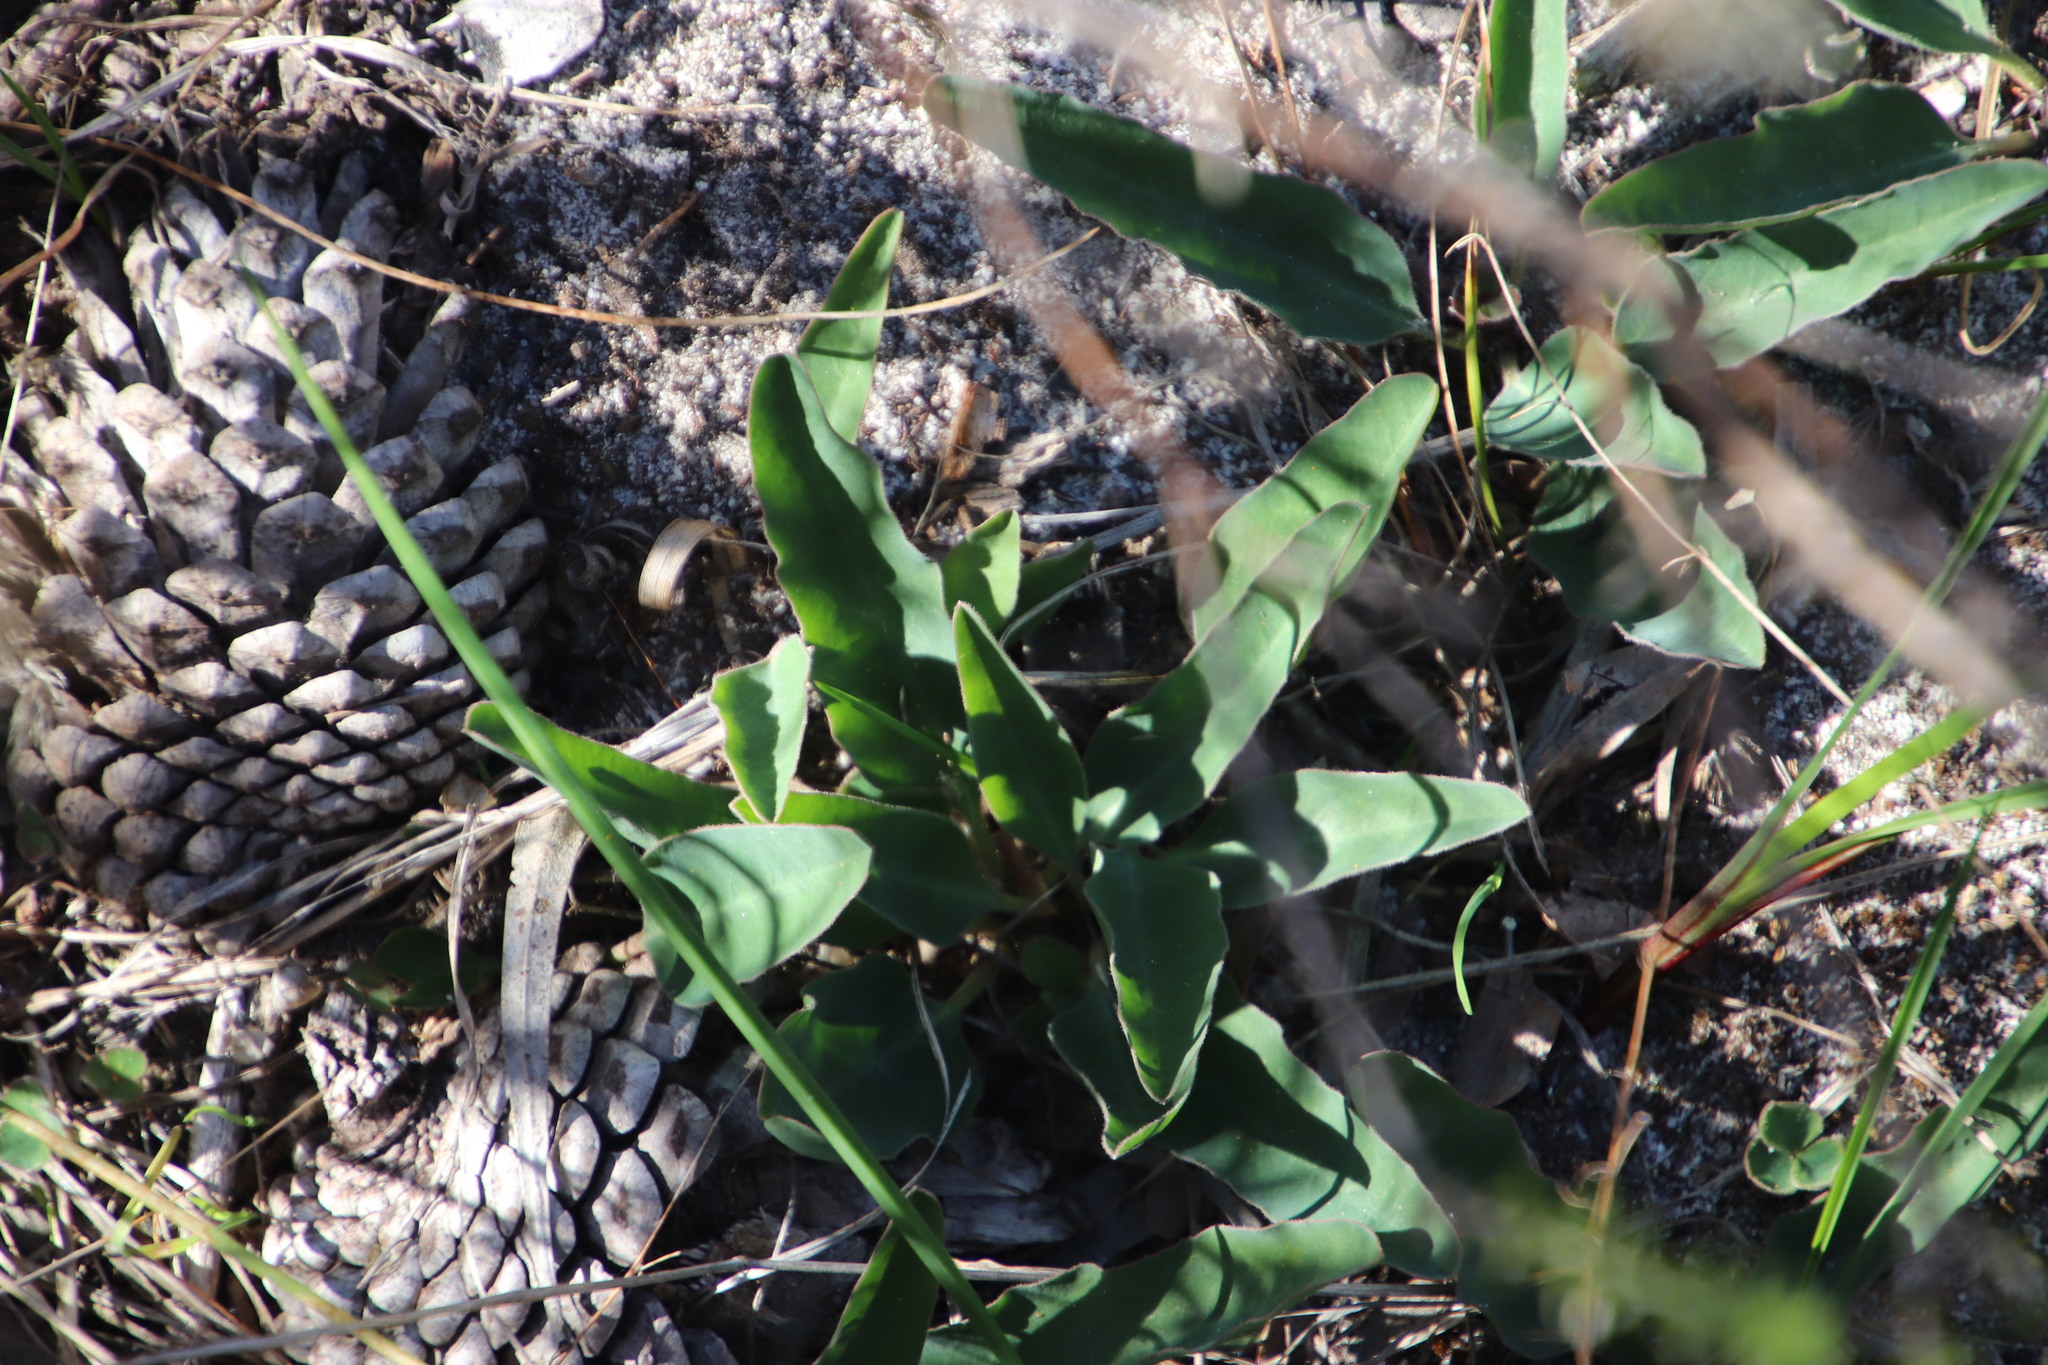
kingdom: Plantae
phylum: Tracheophyta
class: Magnoliopsida
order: Malpighiales
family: Euphorbiaceae
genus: Euphorbia
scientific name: Euphorbia tuberosa
